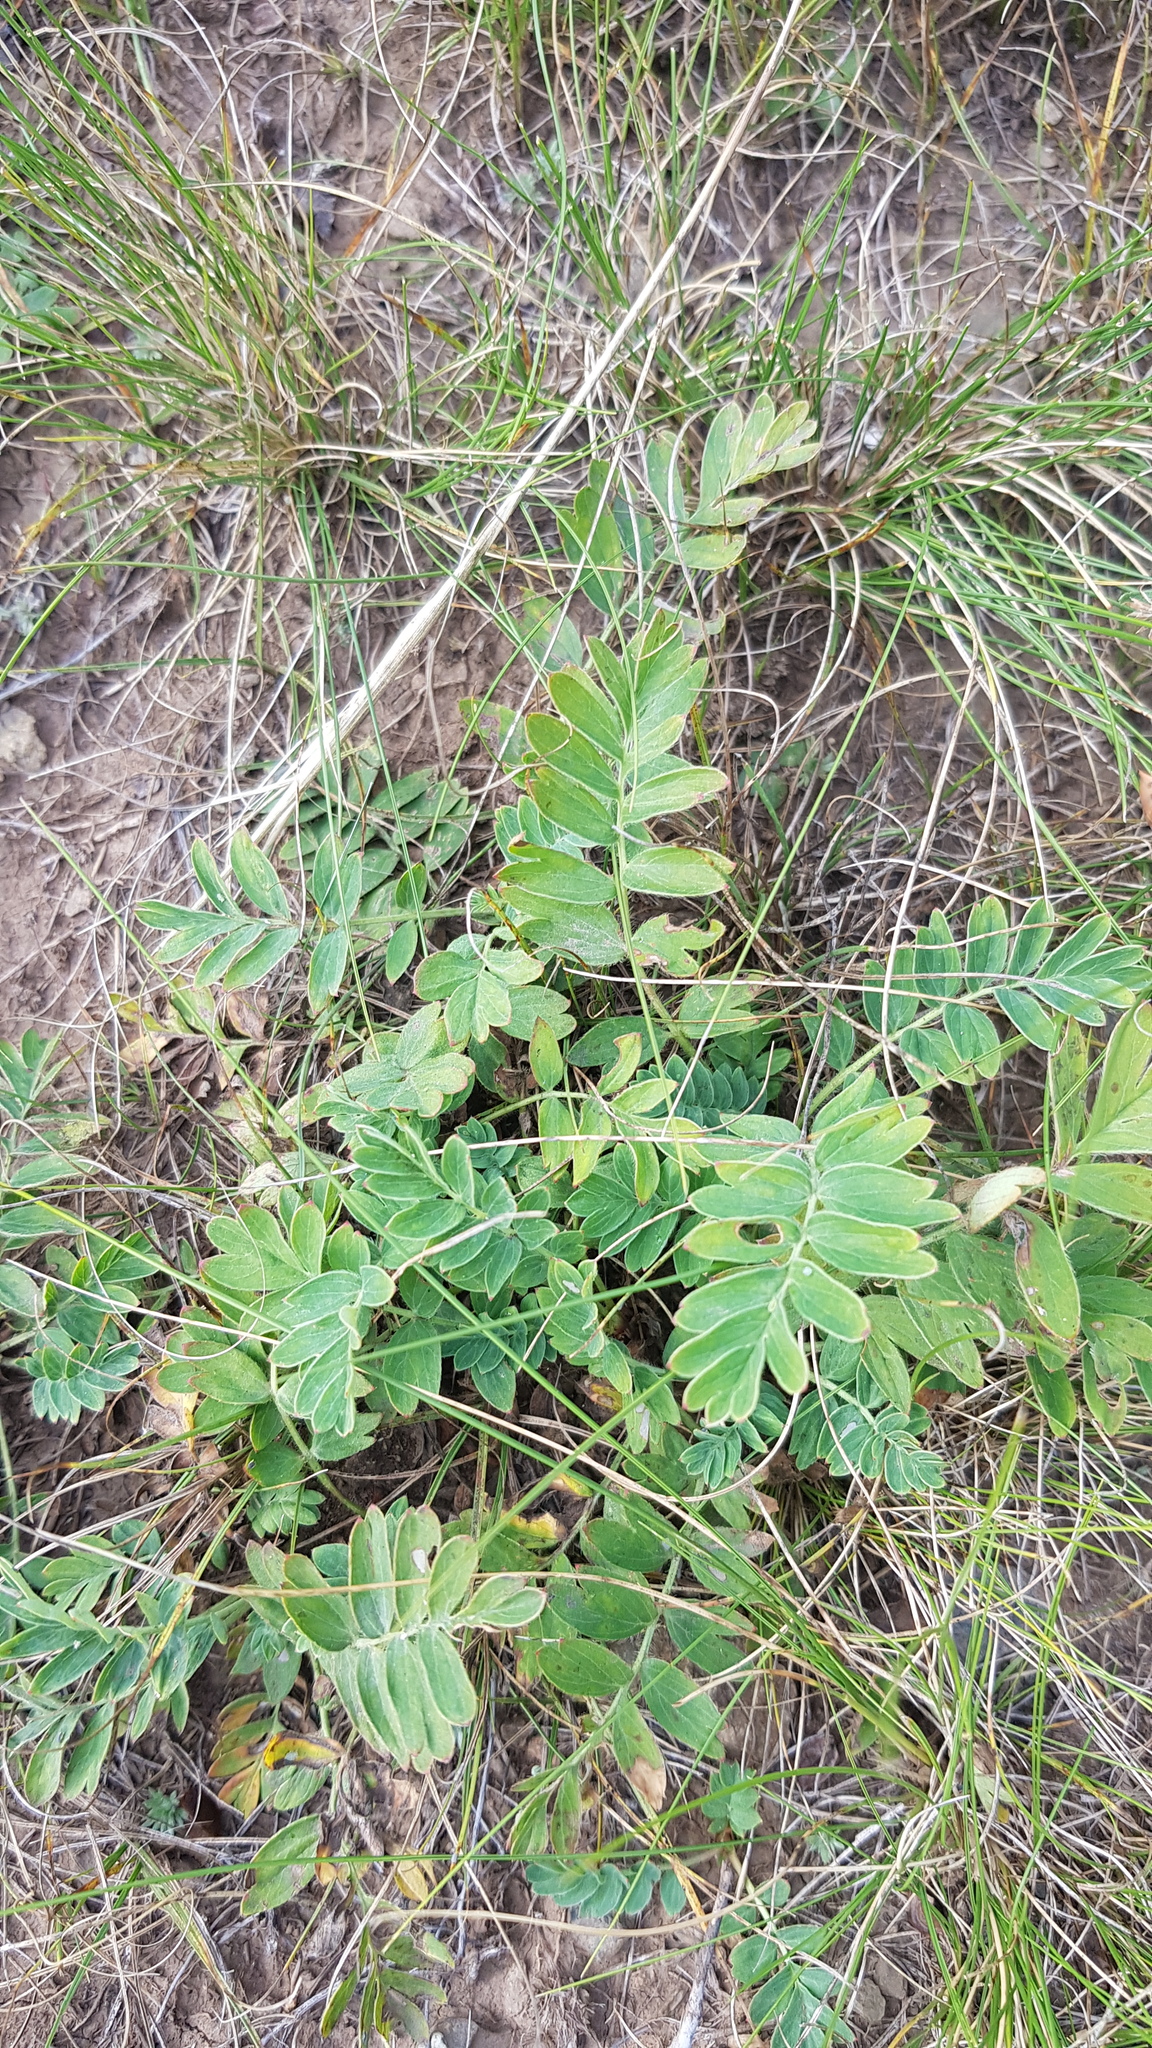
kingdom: Plantae
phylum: Tracheophyta
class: Magnoliopsida
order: Rosales
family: Rosaceae
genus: Sibbaldianthe
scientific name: Sibbaldianthe bifurca
